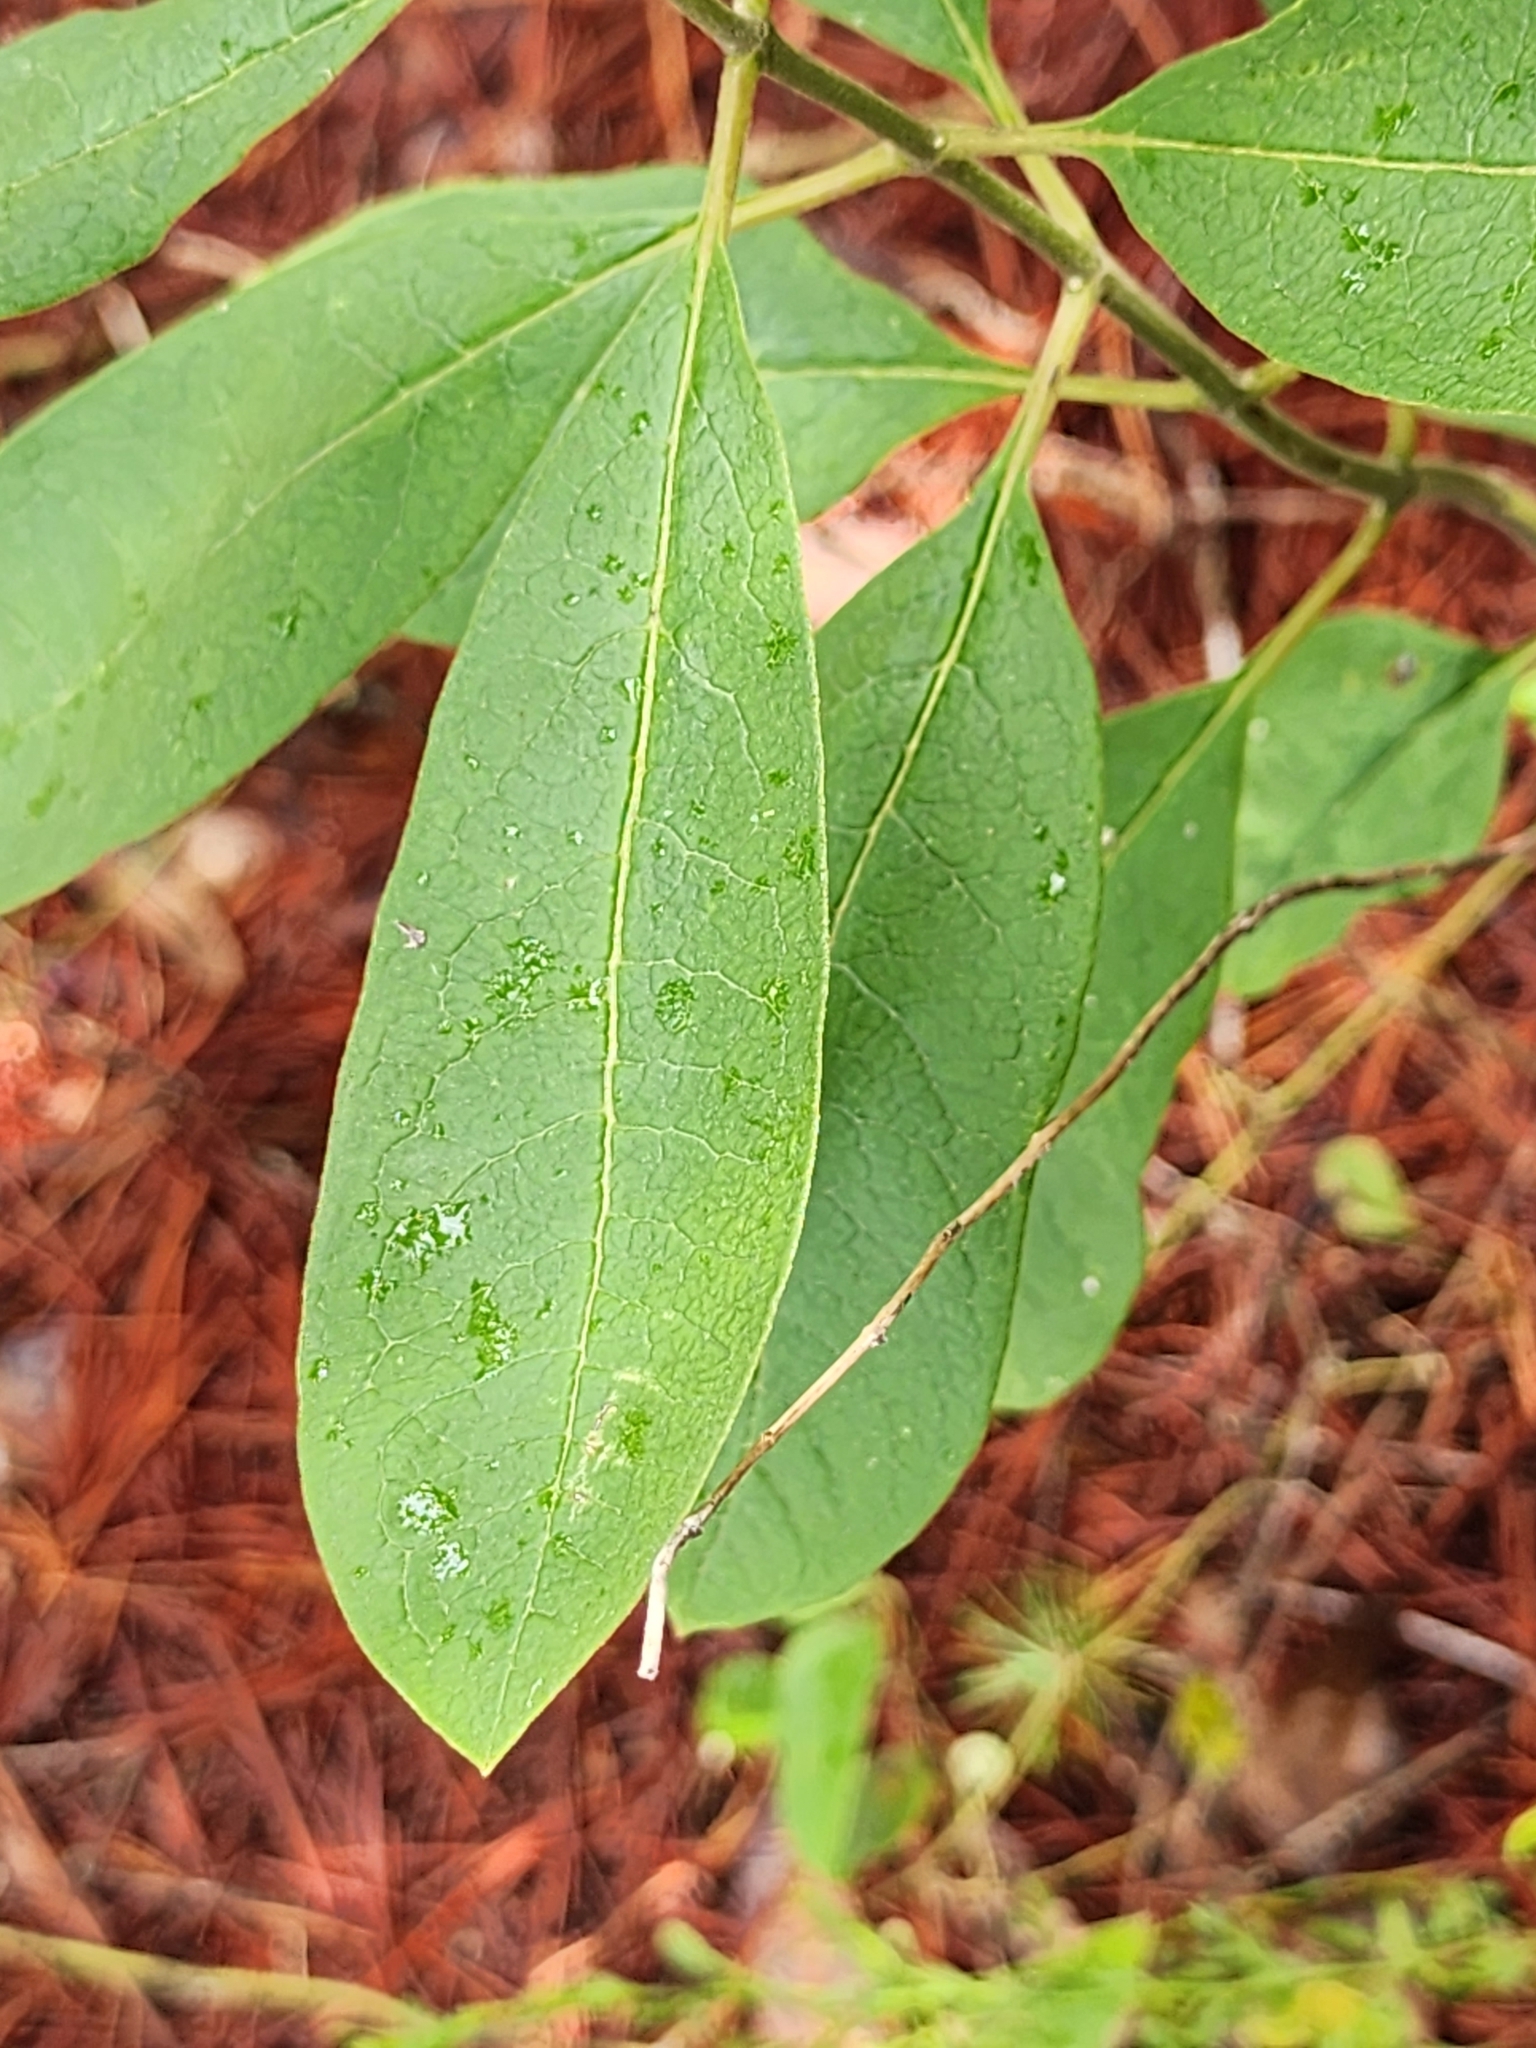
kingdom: Plantae
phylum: Tracheophyta
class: Magnoliopsida
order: Gentianales
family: Apocynaceae
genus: Asclepias
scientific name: Asclepias tomentosa
